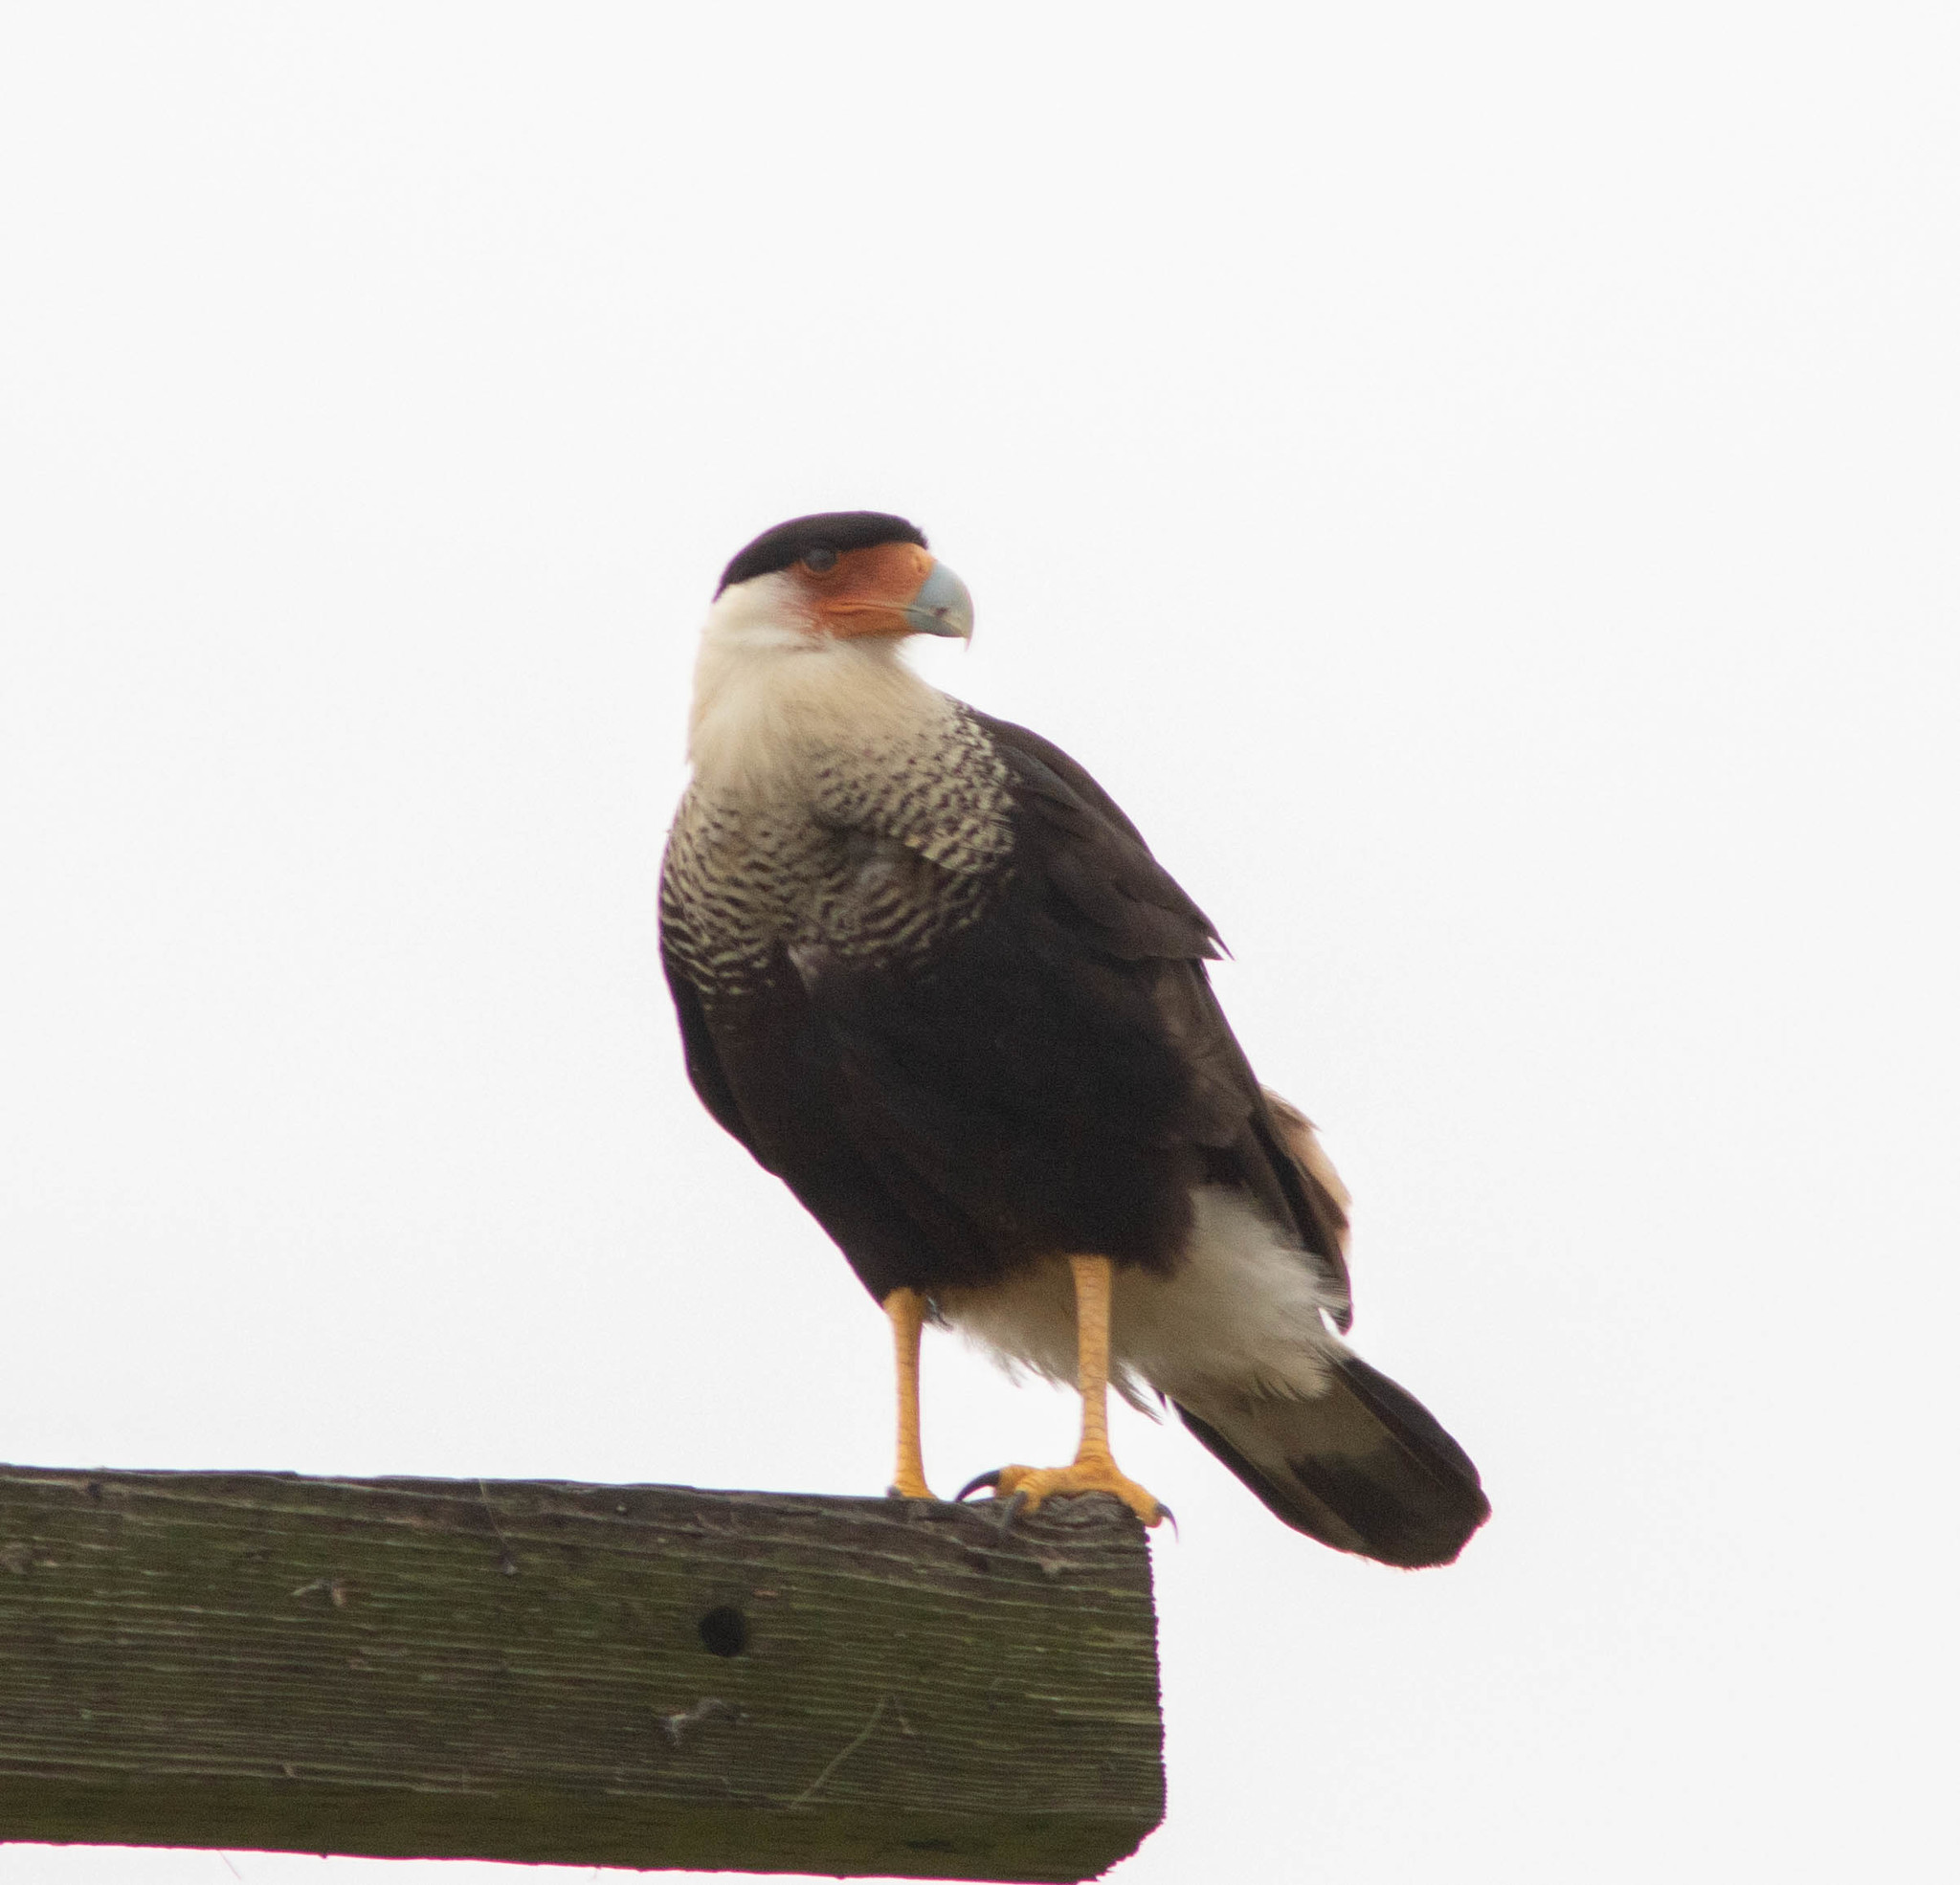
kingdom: Animalia
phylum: Chordata
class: Aves
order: Falconiformes
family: Falconidae
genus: Caracara
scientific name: Caracara plancus
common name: Southern caracara
